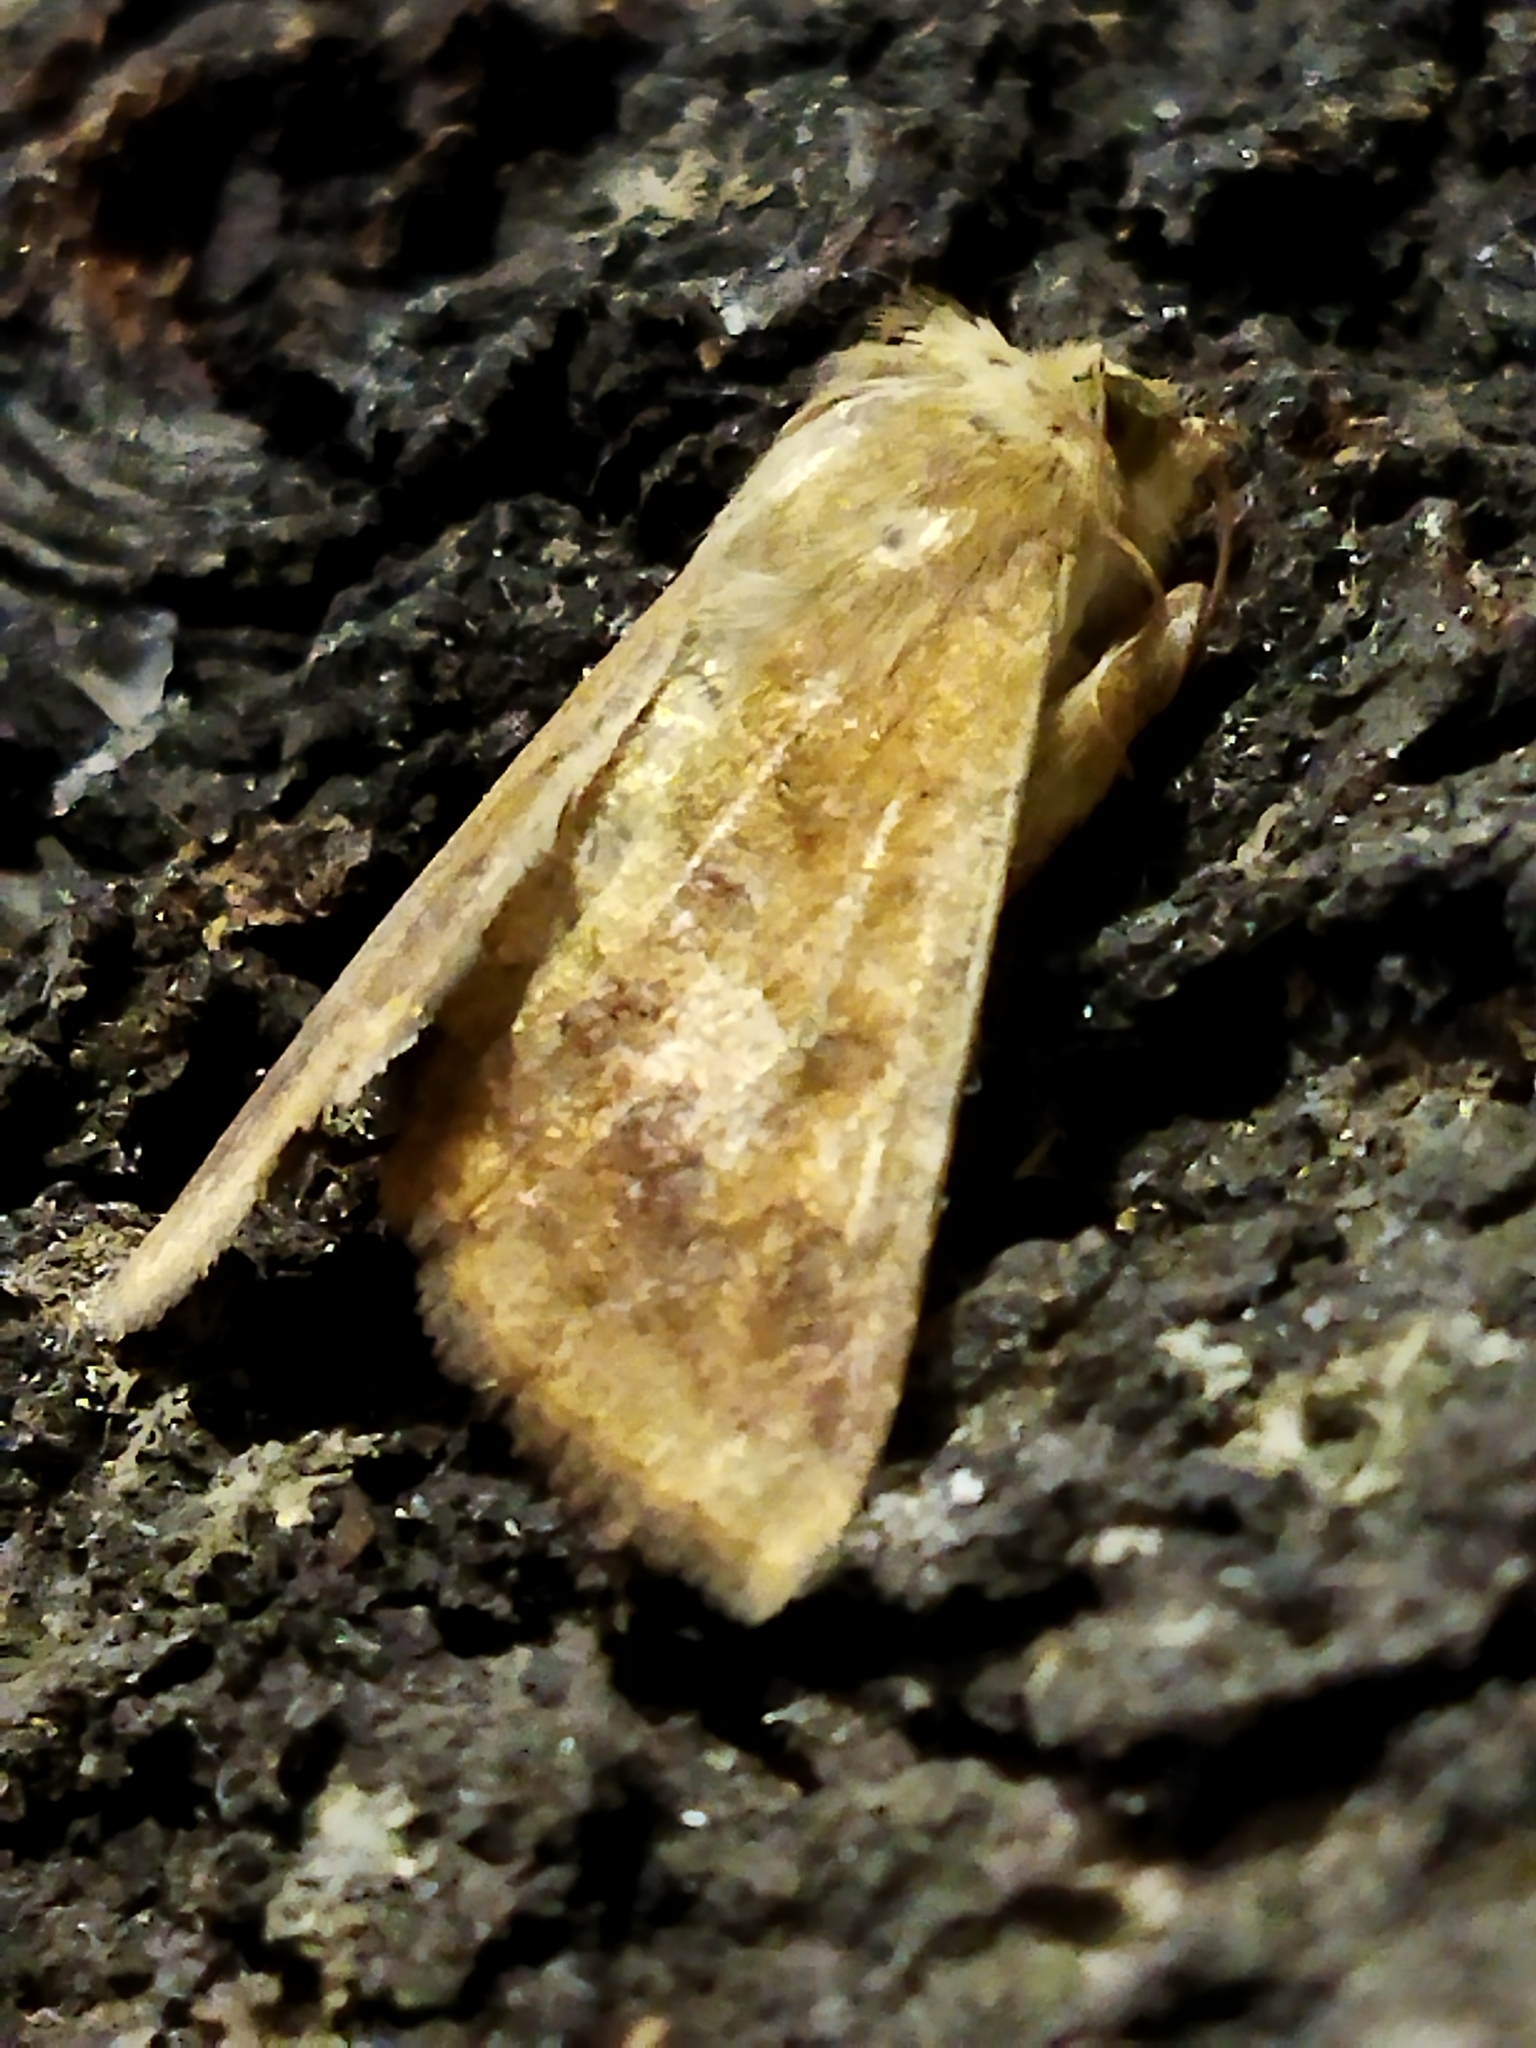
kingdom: Animalia
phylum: Arthropoda
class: Insecta
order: Lepidoptera
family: Noctuidae
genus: Helicoverpa
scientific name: Helicoverpa armigera
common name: Cotton bollworm
